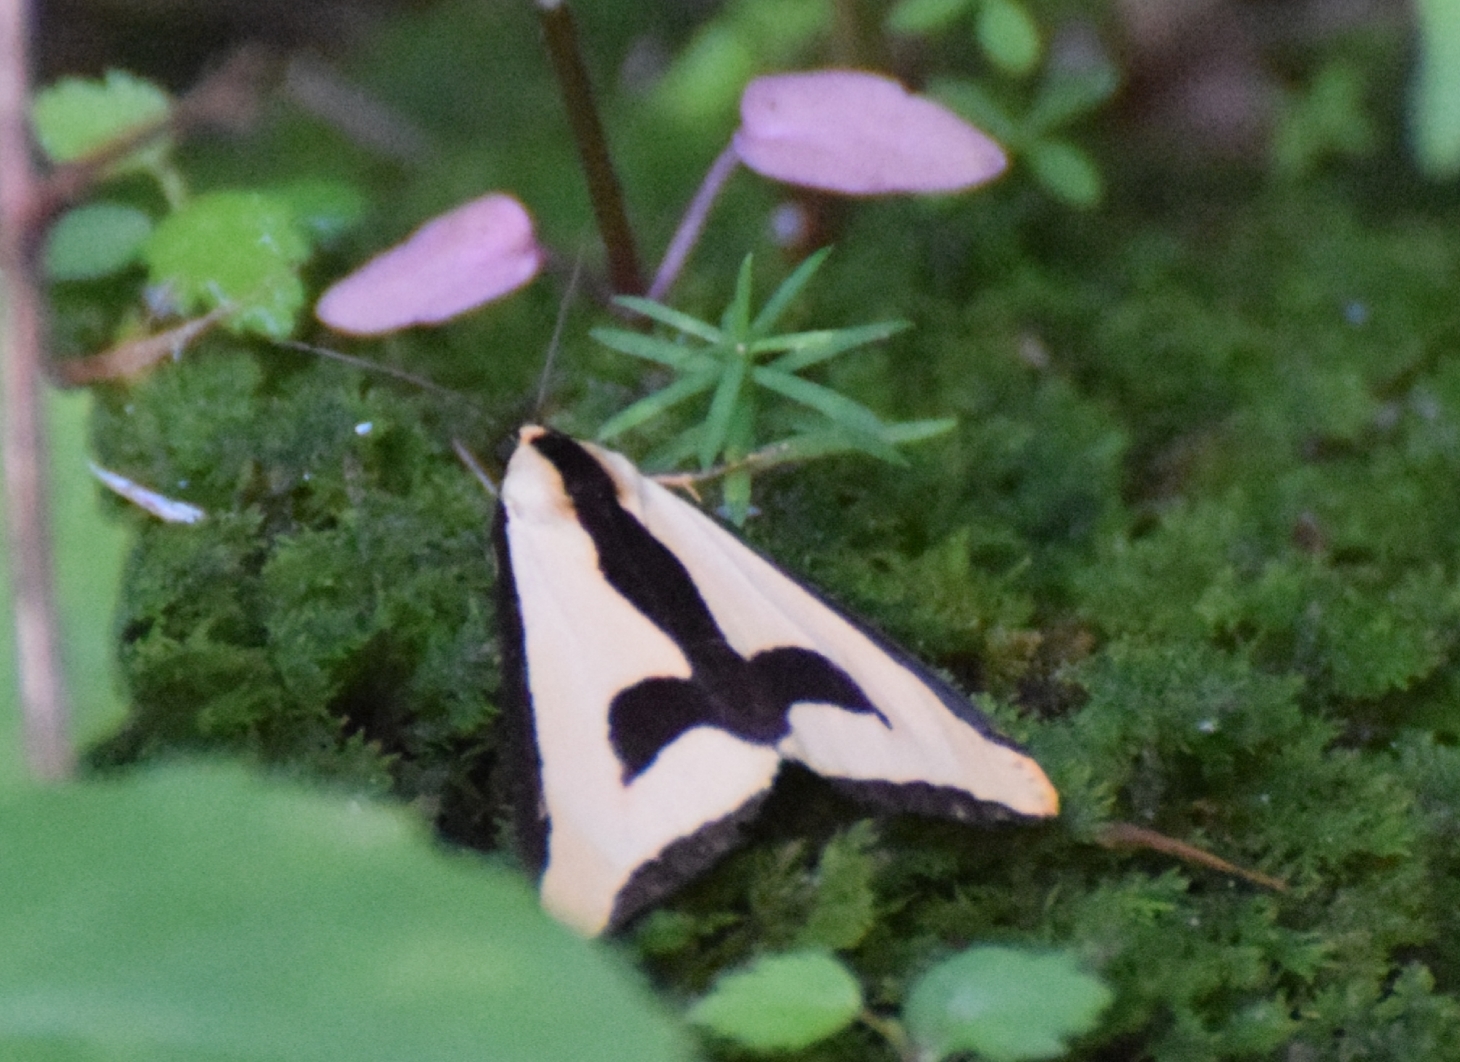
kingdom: Animalia
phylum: Arthropoda
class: Insecta
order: Lepidoptera
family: Erebidae
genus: Haploa
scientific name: Haploa clymene
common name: Clymene moth
